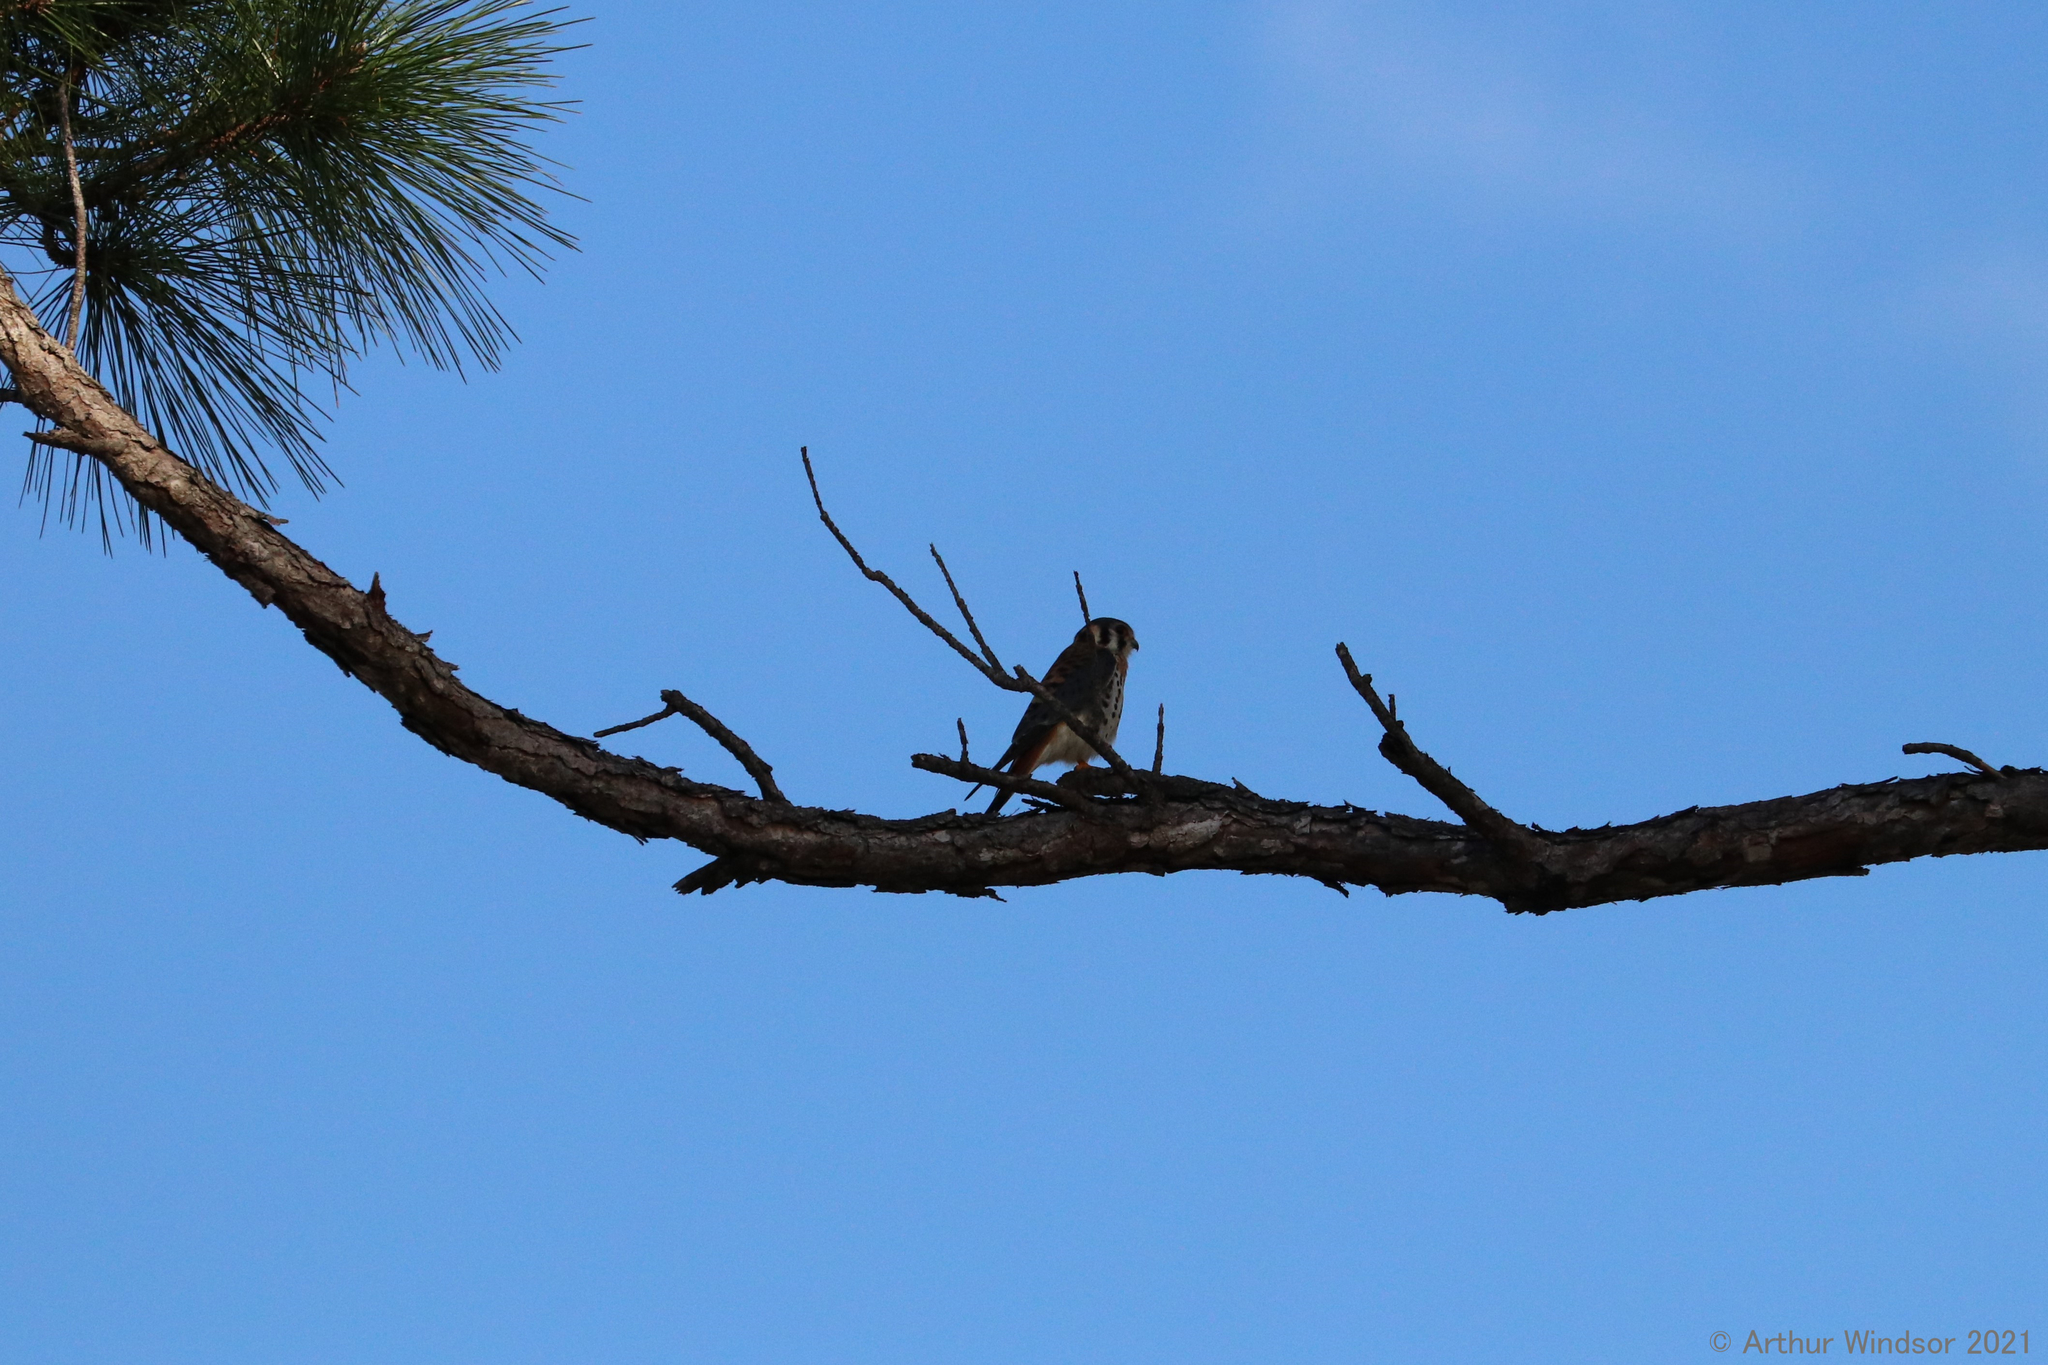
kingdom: Animalia
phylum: Chordata
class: Aves
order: Falconiformes
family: Falconidae
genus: Falco
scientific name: Falco sparverius
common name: American kestrel
